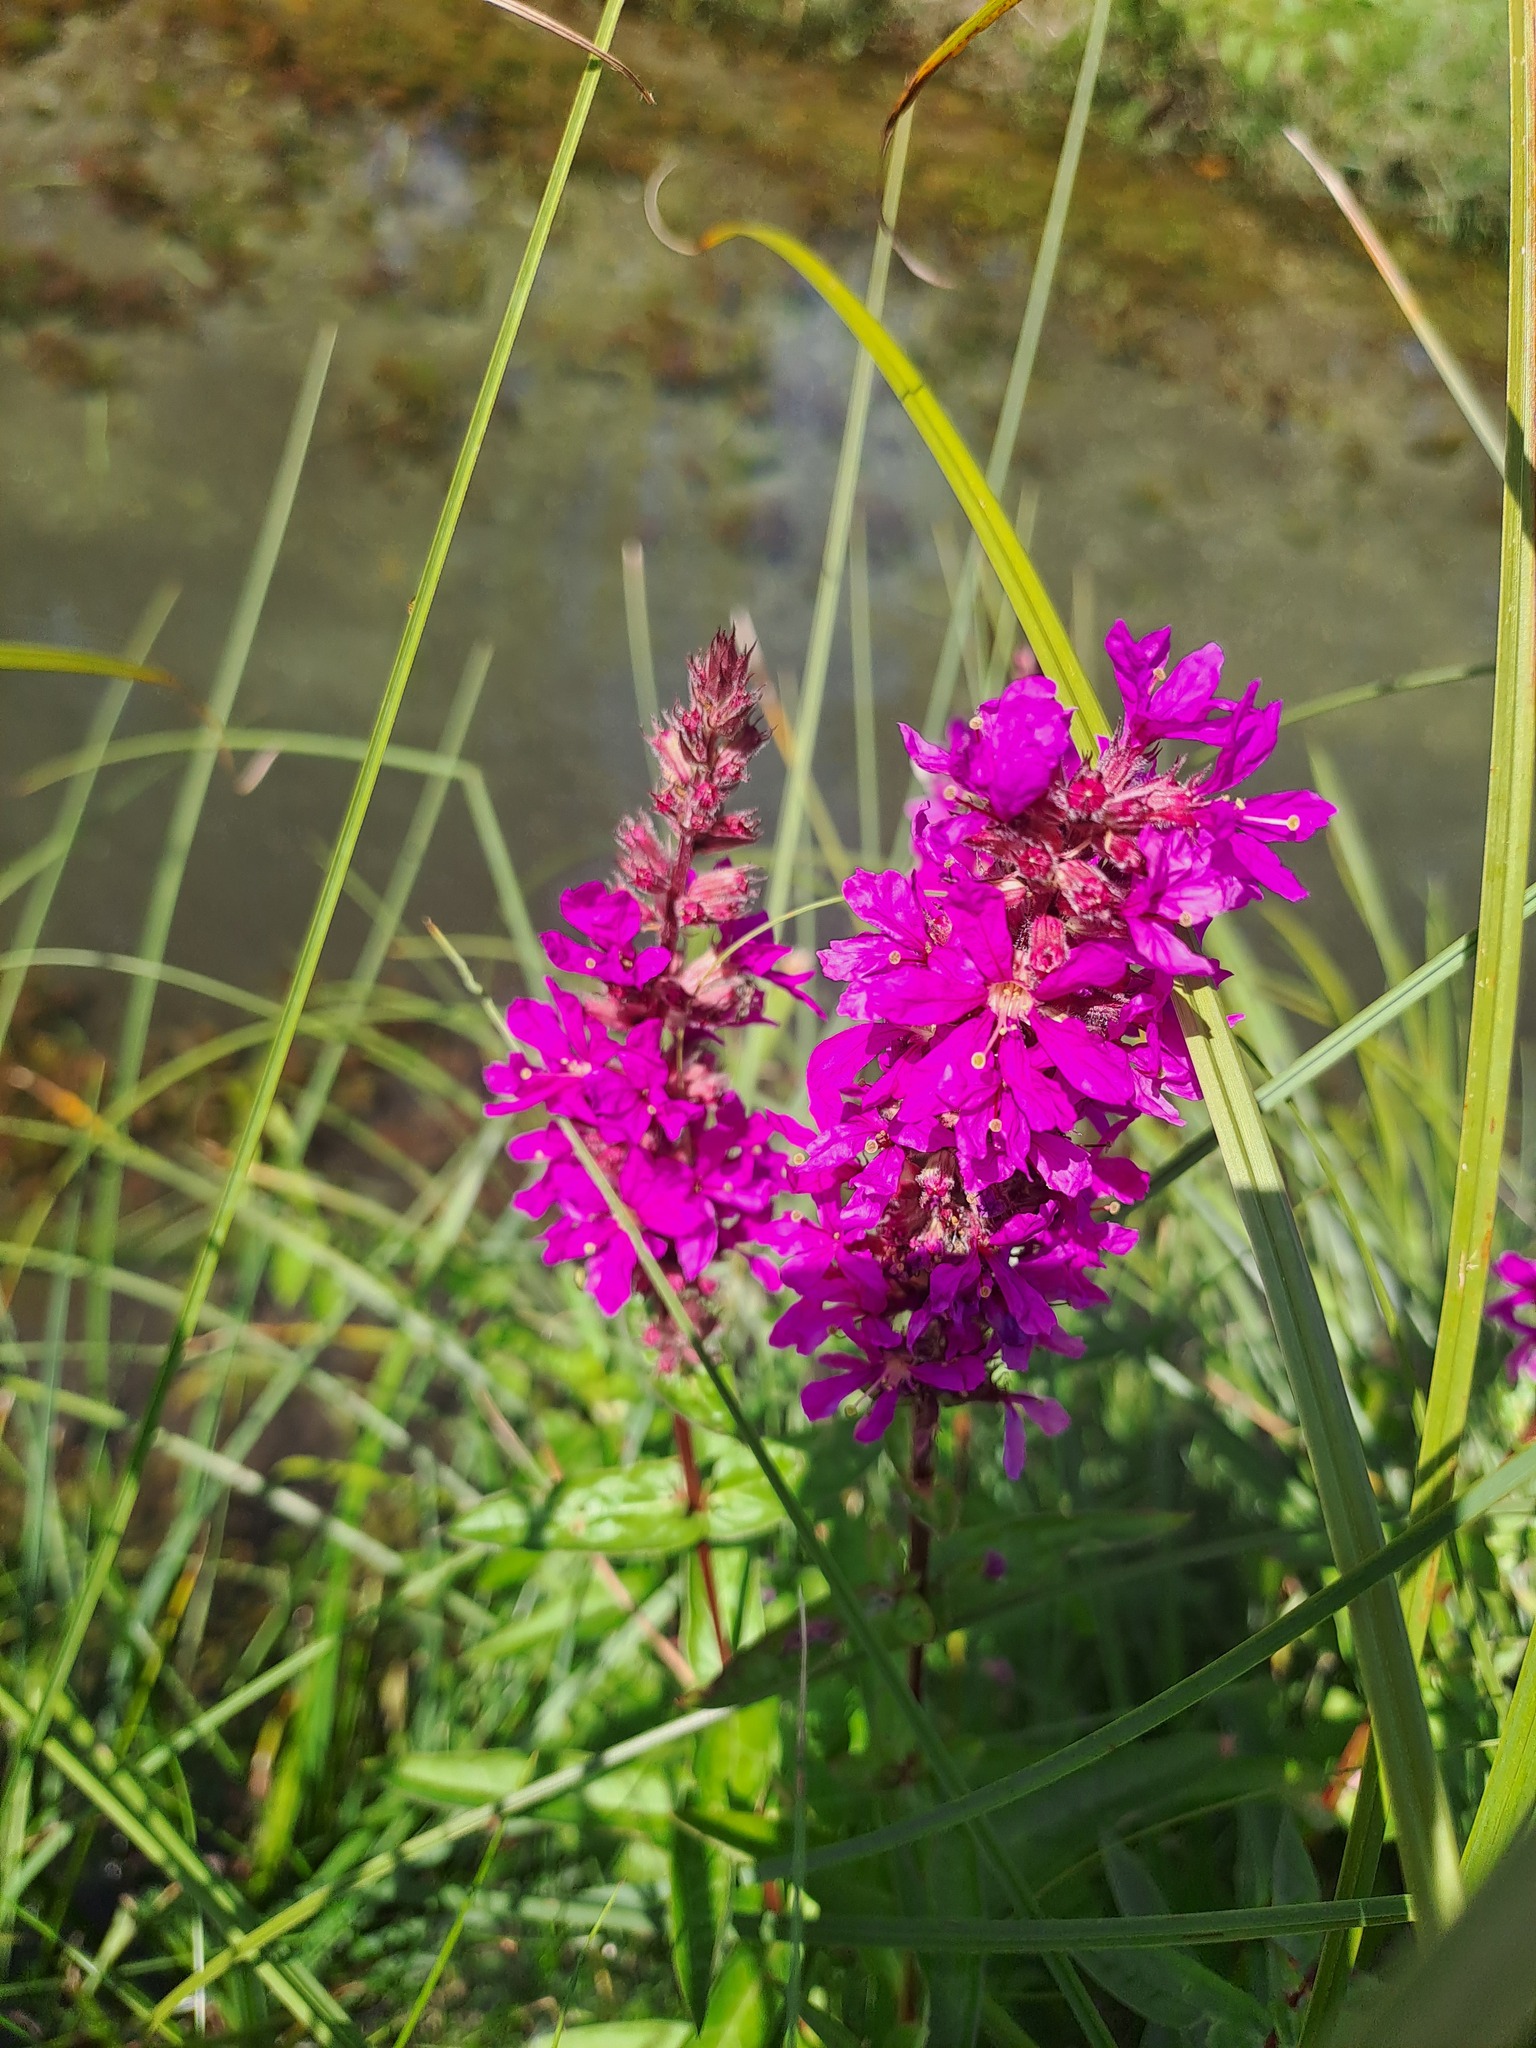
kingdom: Plantae
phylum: Tracheophyta
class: Magnoliopsida
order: Myrtales
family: Lythraceae
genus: Lythrum
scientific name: Lythrum salicaria
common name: Purple loosestrife
